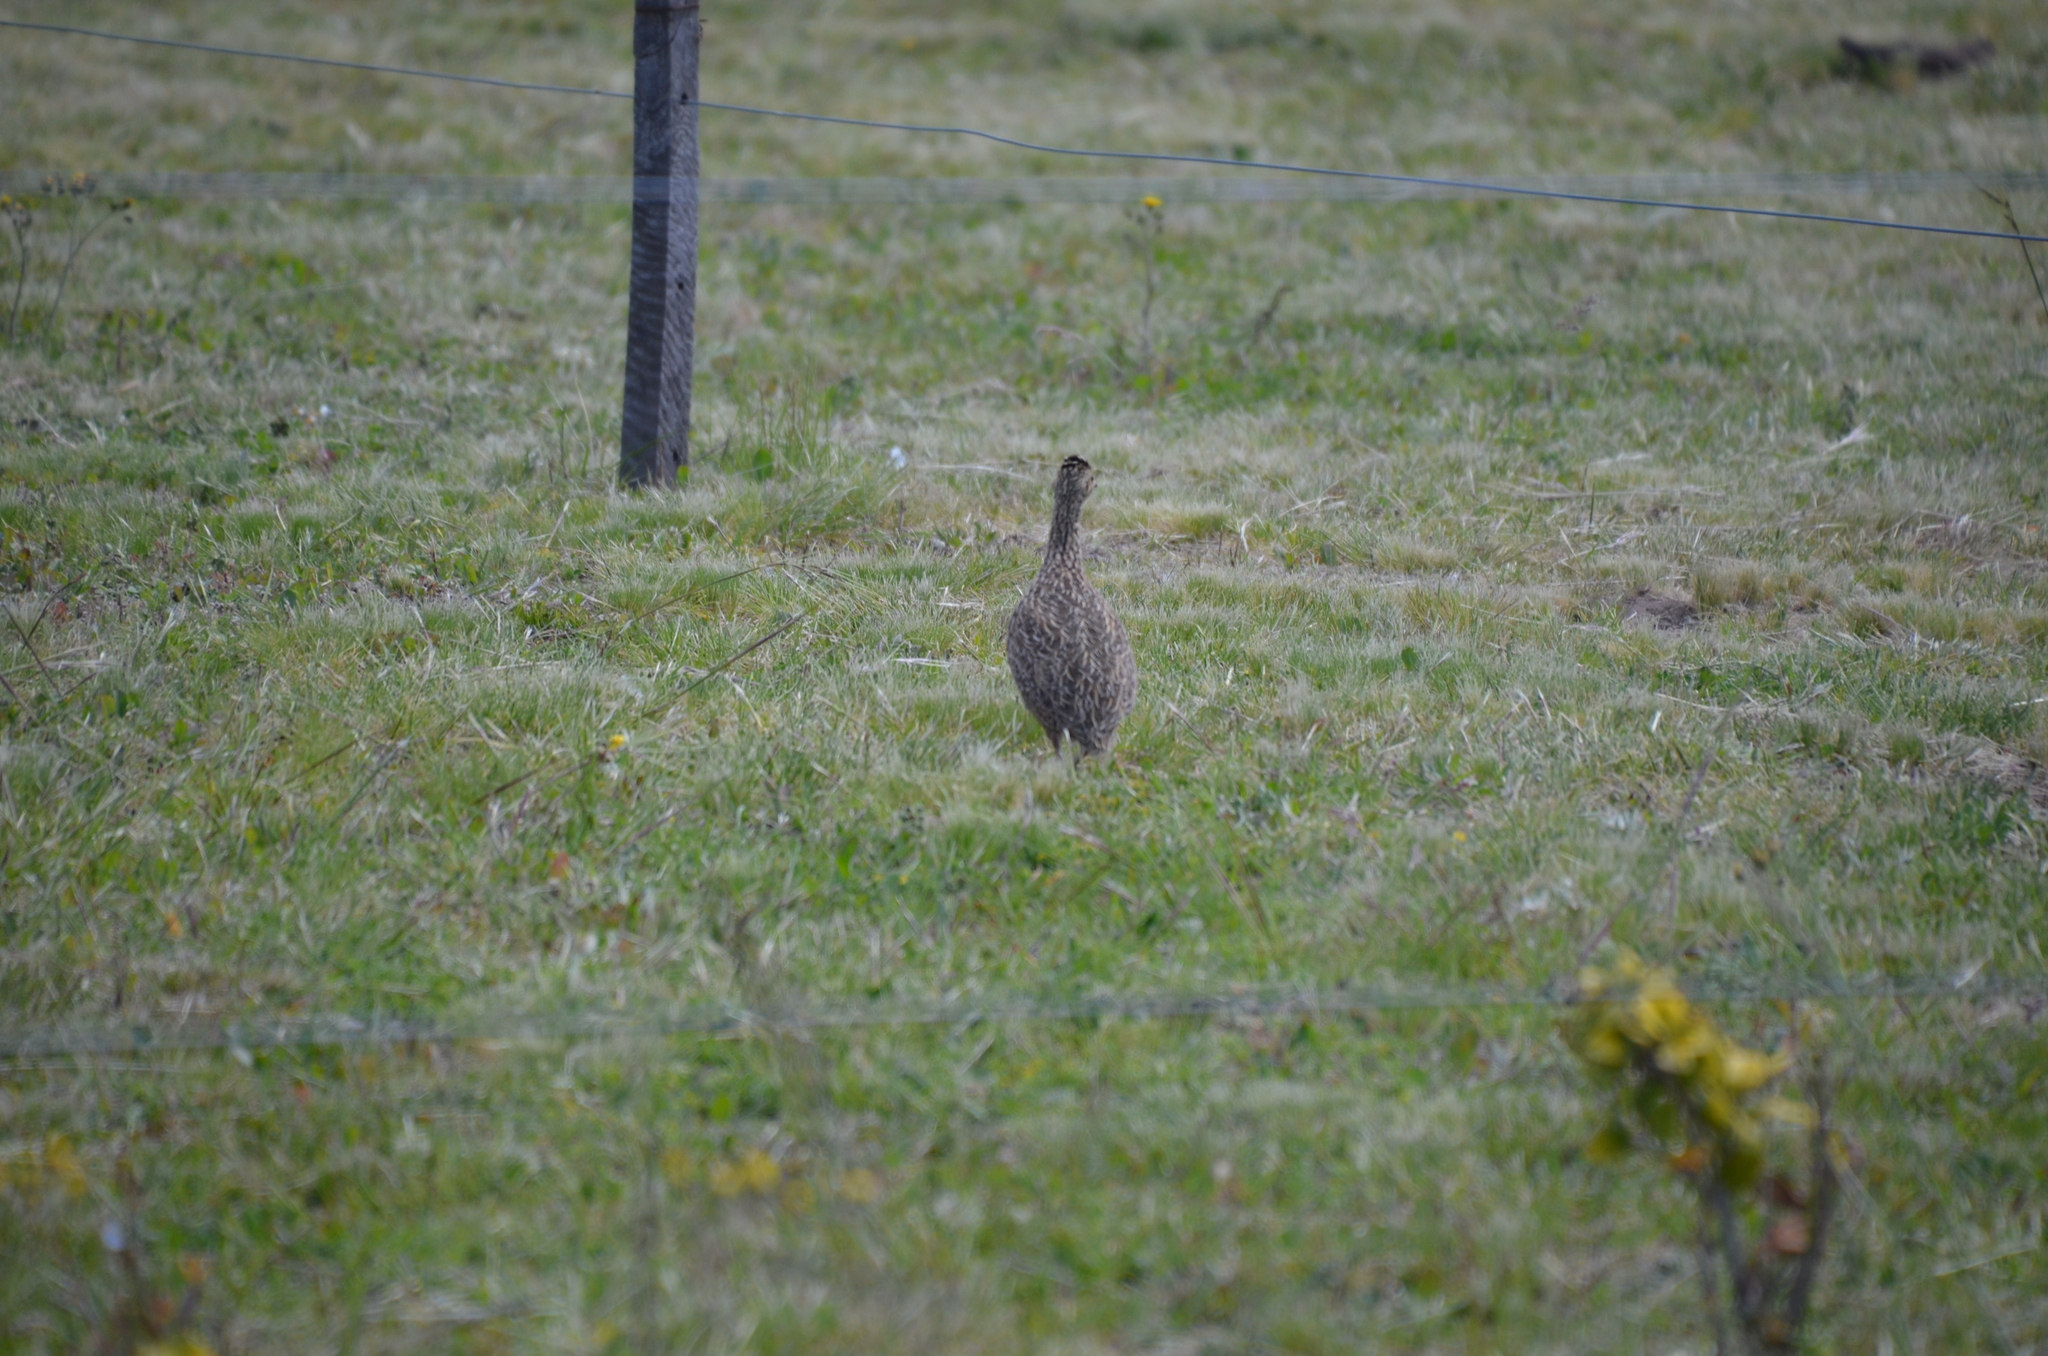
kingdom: Animalia
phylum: Chordata
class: Aves
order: Tinamiformes
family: Tinamidae
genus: Nothura
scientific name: Nothura maculosa
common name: Spotted nothura
